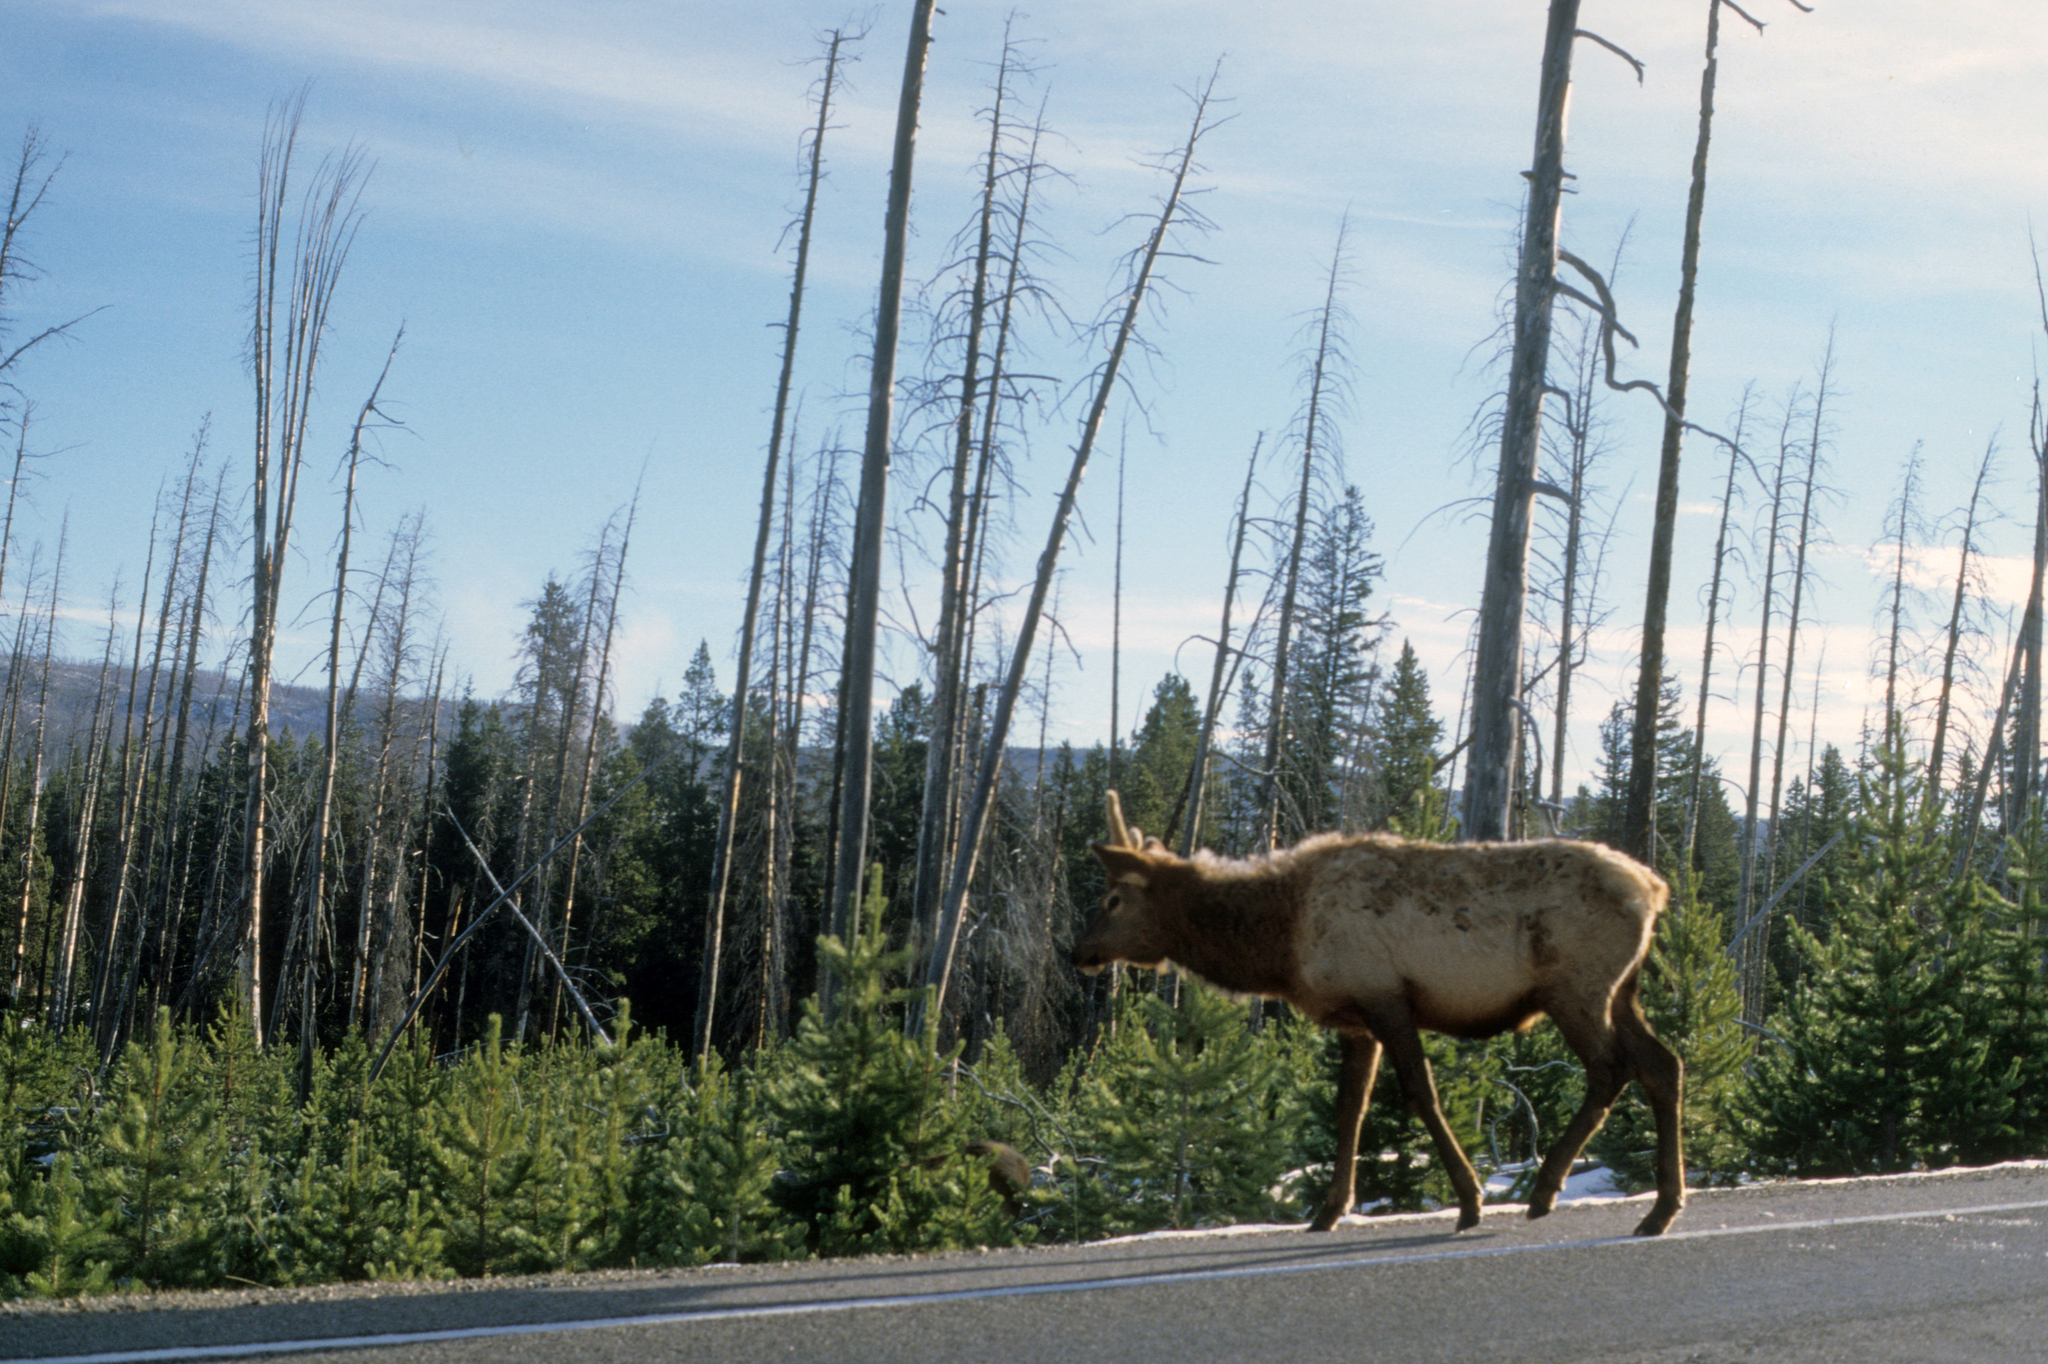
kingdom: Animalia
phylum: Chordata
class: Mammalia
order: Artiodactyla
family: Cervidae
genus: Cervus
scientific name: Cervus elaphus
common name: Red deer
